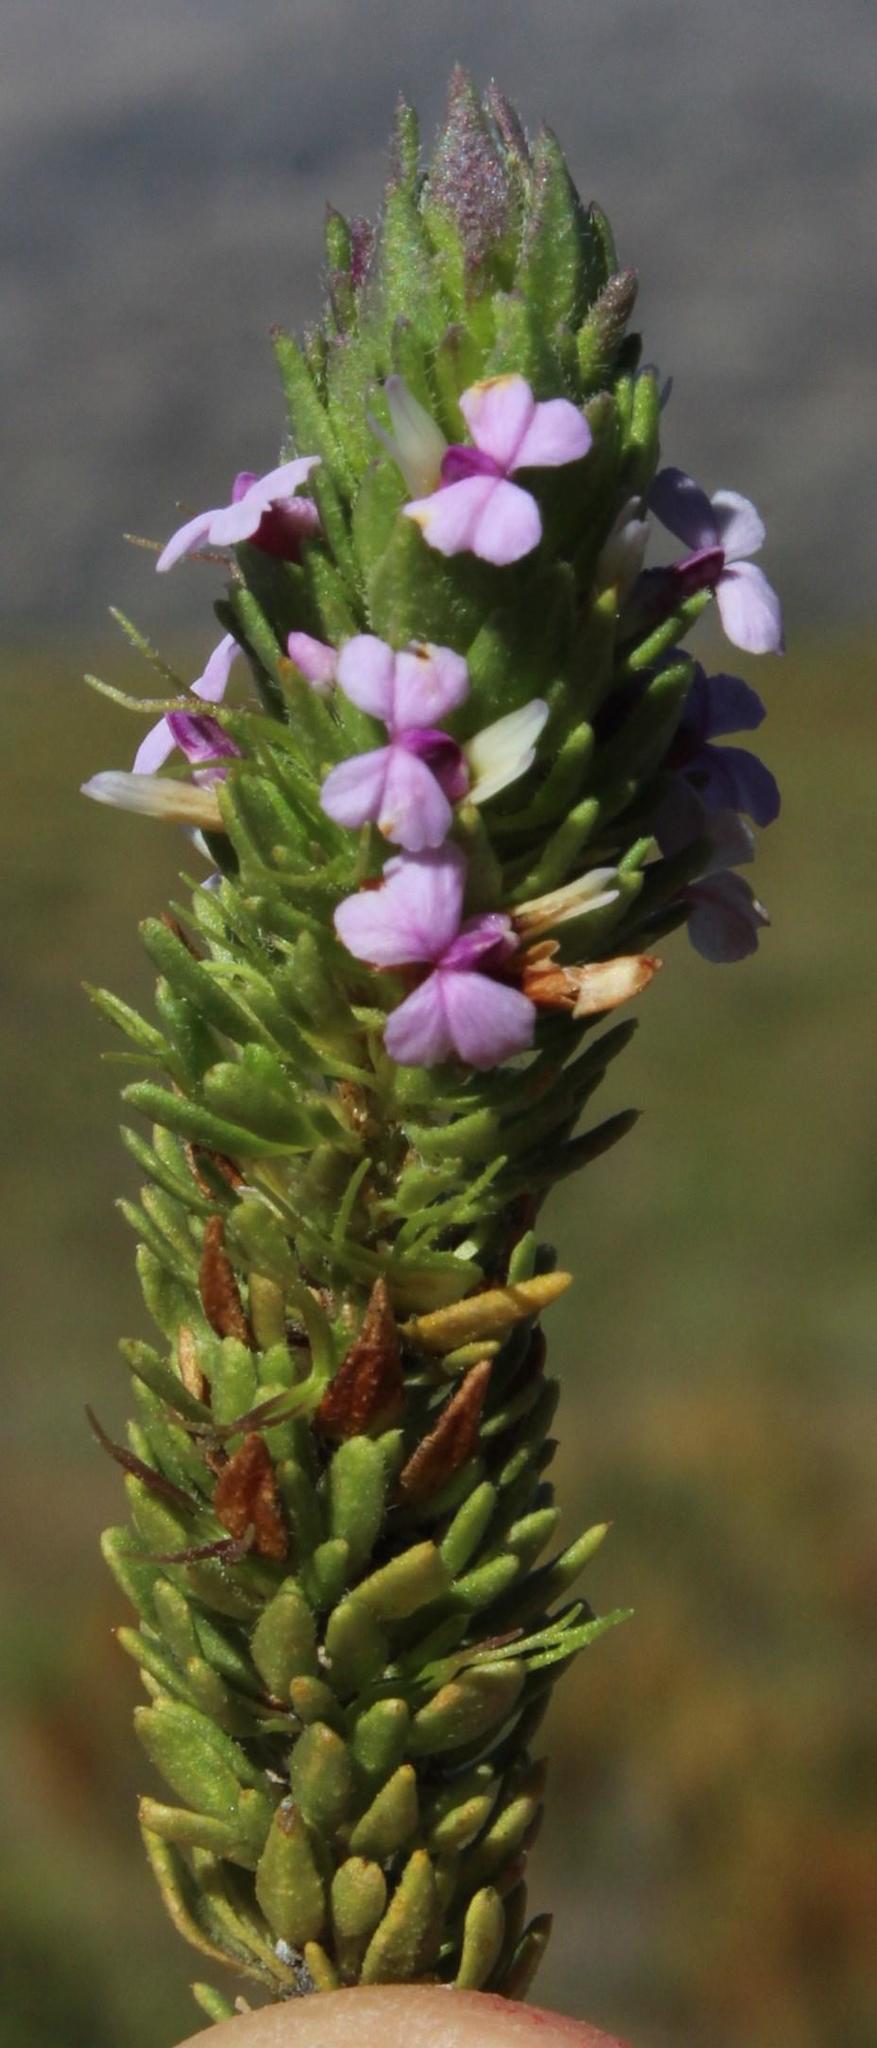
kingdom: Plantae
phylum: Tracheophyta
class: Magnoliopsida
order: Fabales
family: Polygalaceae
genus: Muraltia
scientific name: Muraltia alopecuroides
